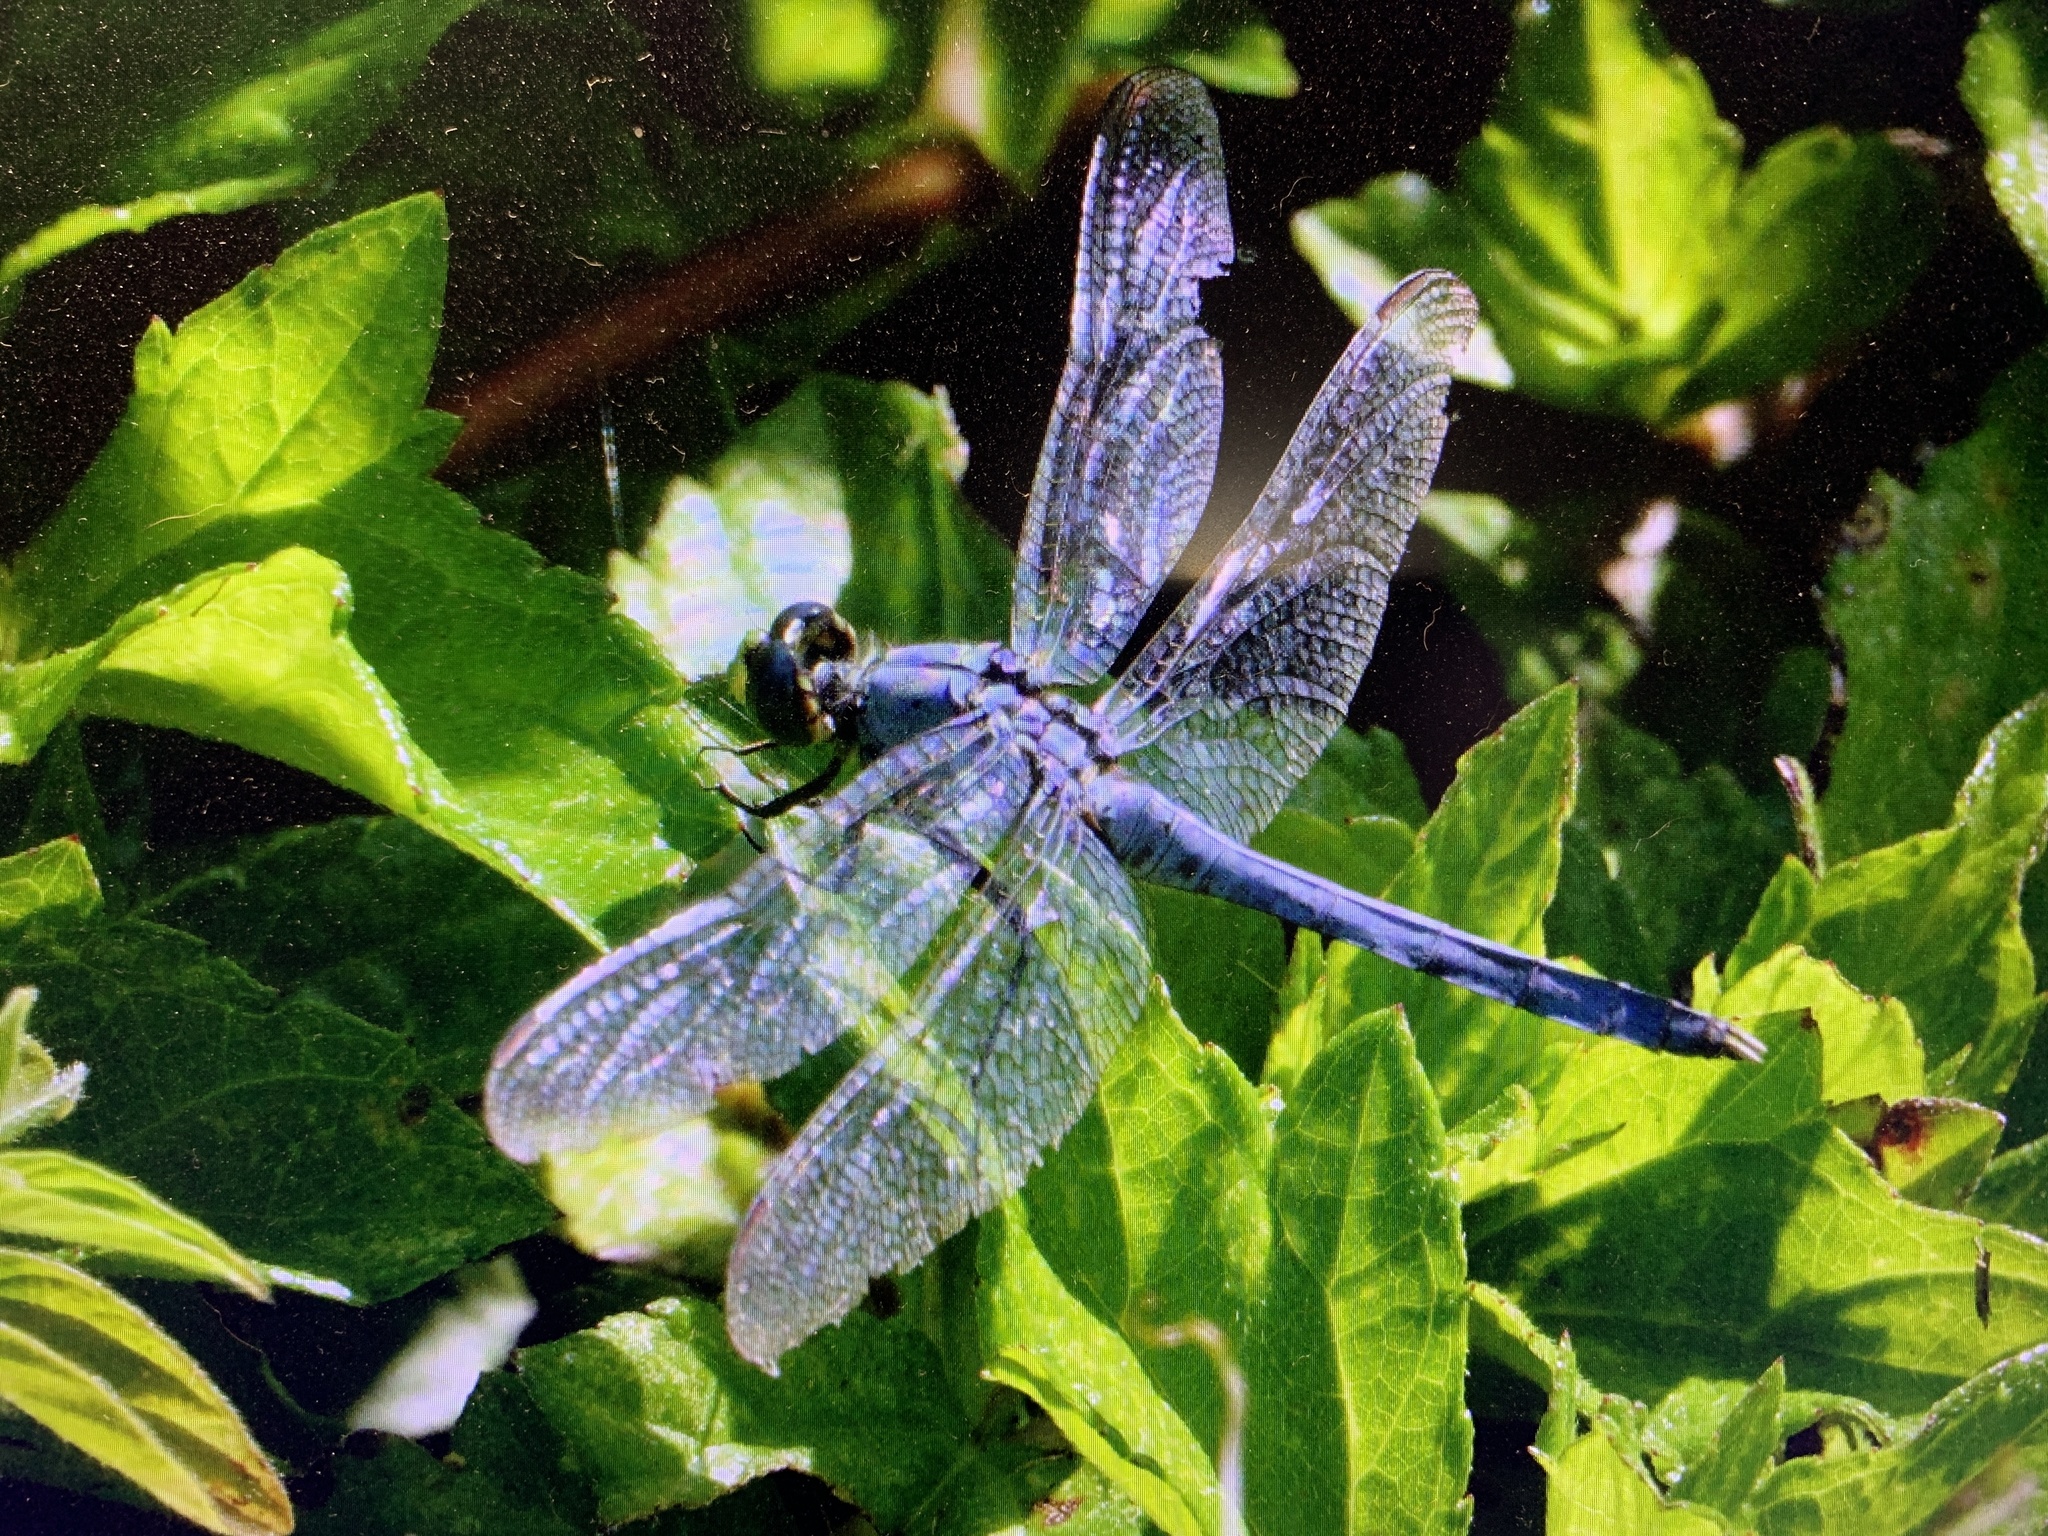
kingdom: Animalia
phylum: Arthropoda
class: Insecta
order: Odonata
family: Libellulidae
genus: Erythemis
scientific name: Erythemis simplicicollis
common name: Eastern pondhawk
